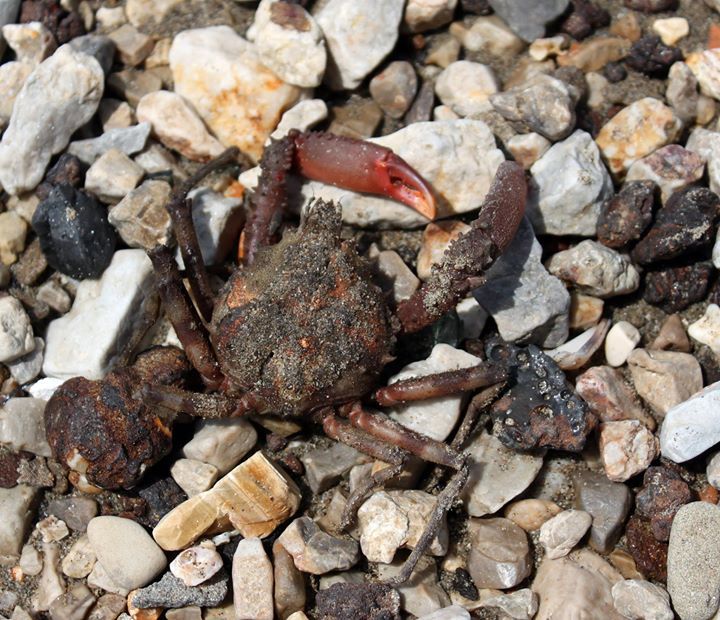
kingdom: Animalia
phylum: Arthropoda
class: Malacostraca
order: Decapoda
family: Epialtidae
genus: Herbstia
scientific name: Herbstia condyliata
